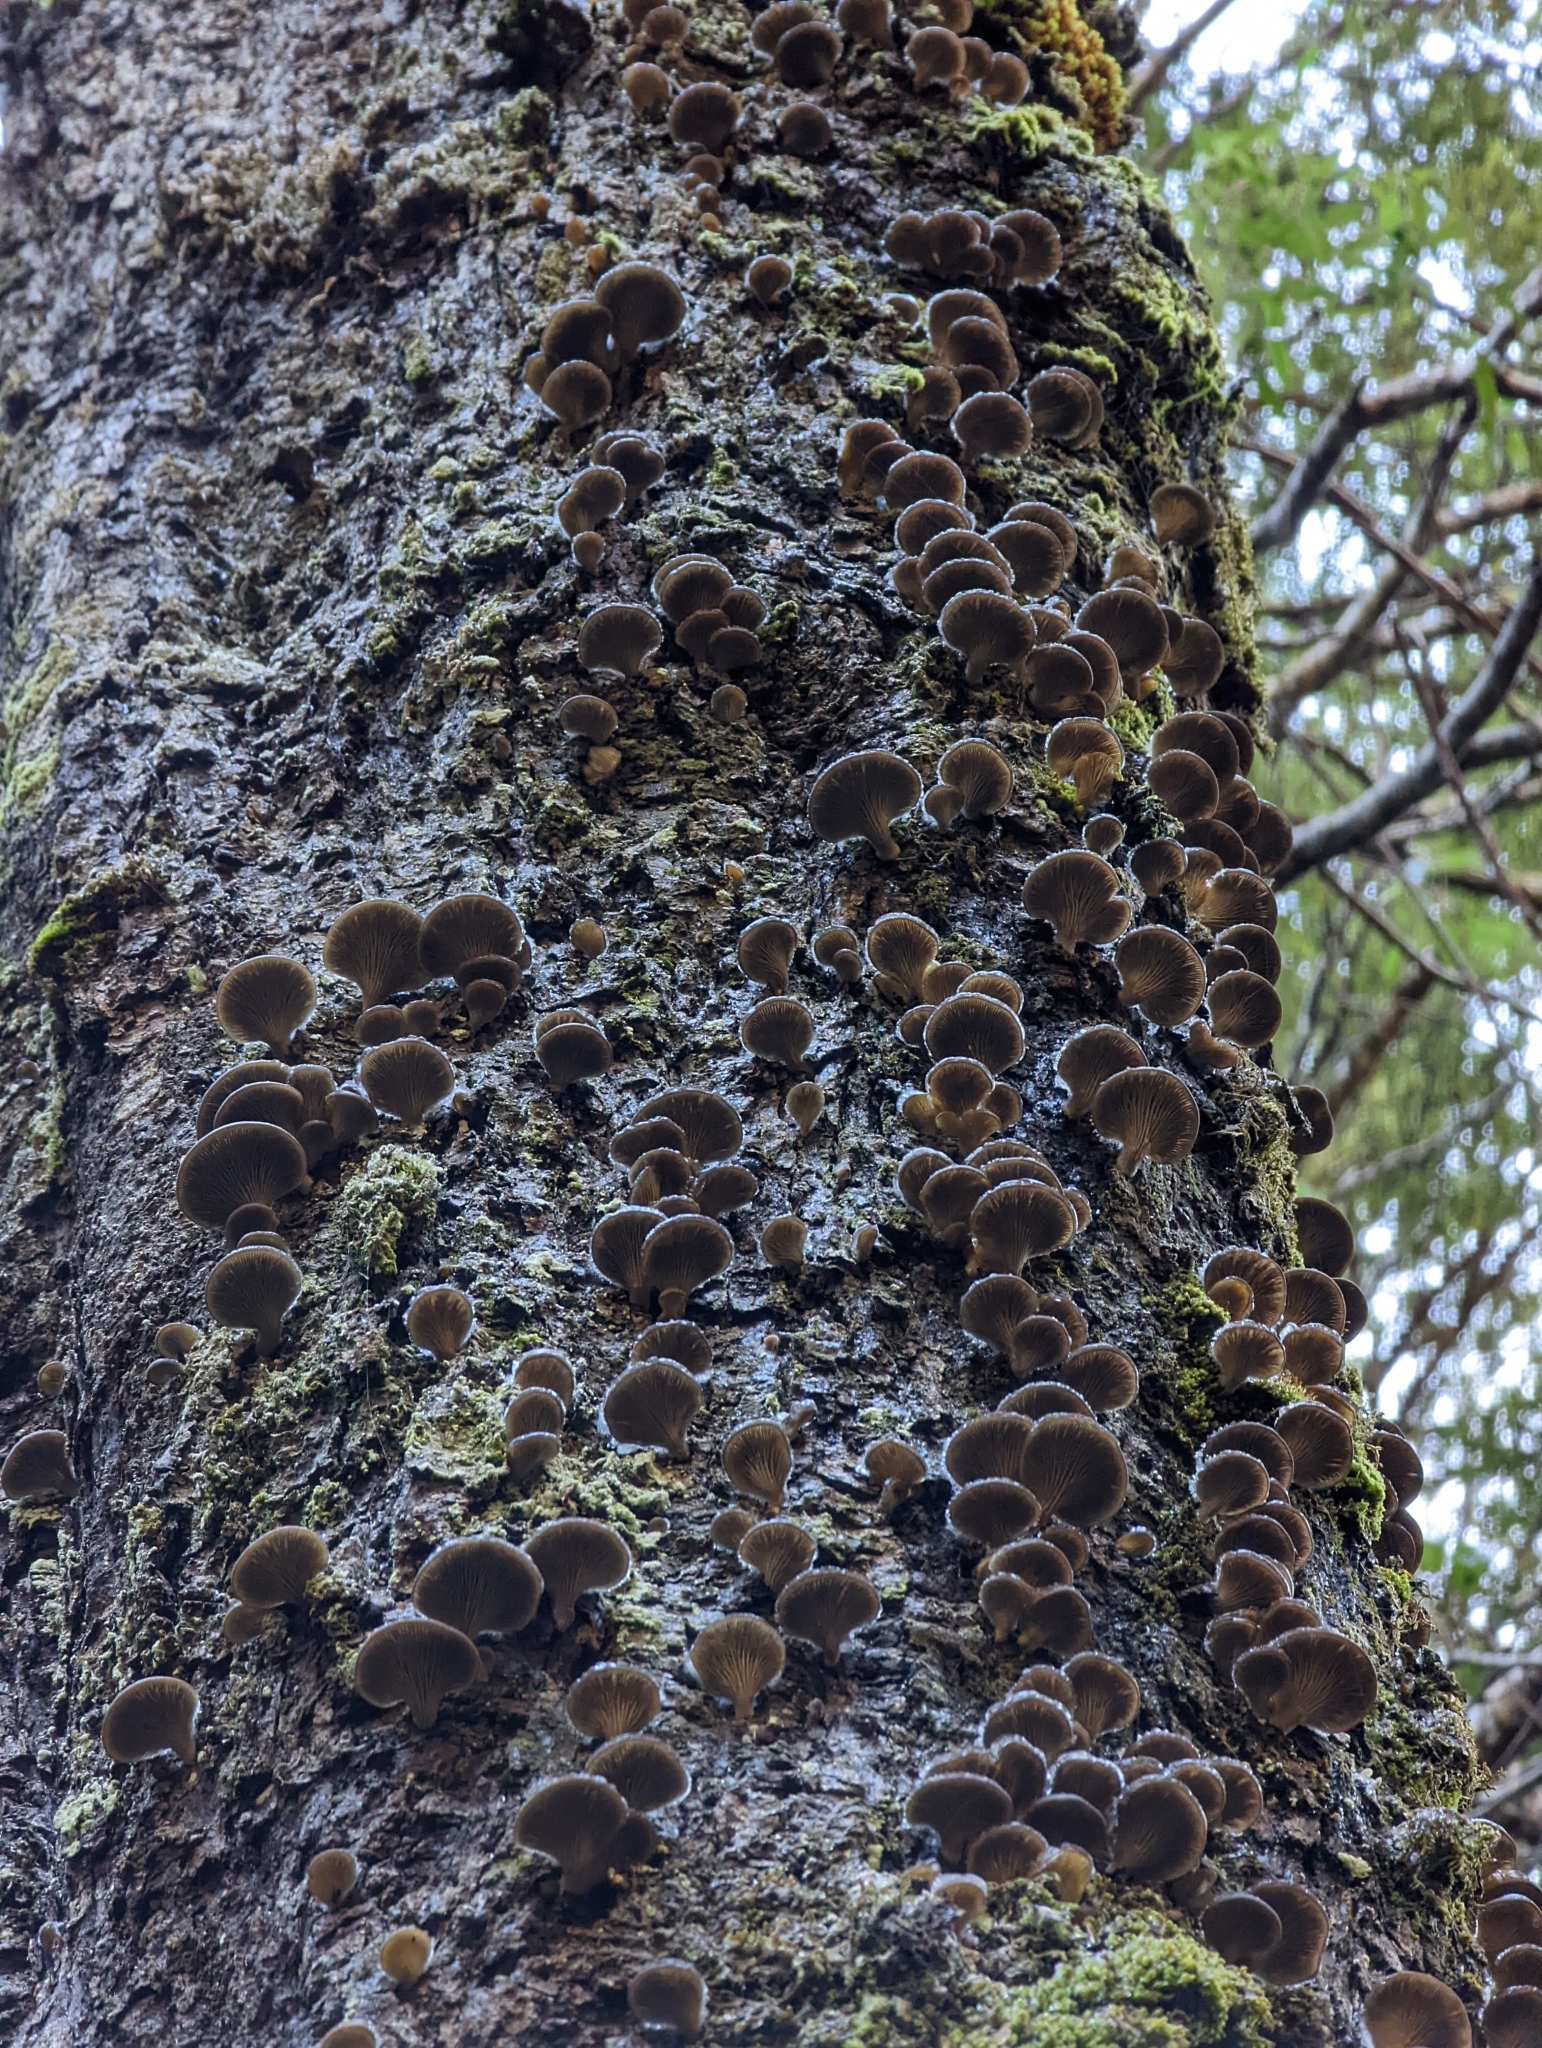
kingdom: Fungi
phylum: Basidiomycota
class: Agaricomycetes
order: Agaricales
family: Pleurotaceae
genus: Pleurotus
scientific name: Pleurotus purpureo-olivaceus
